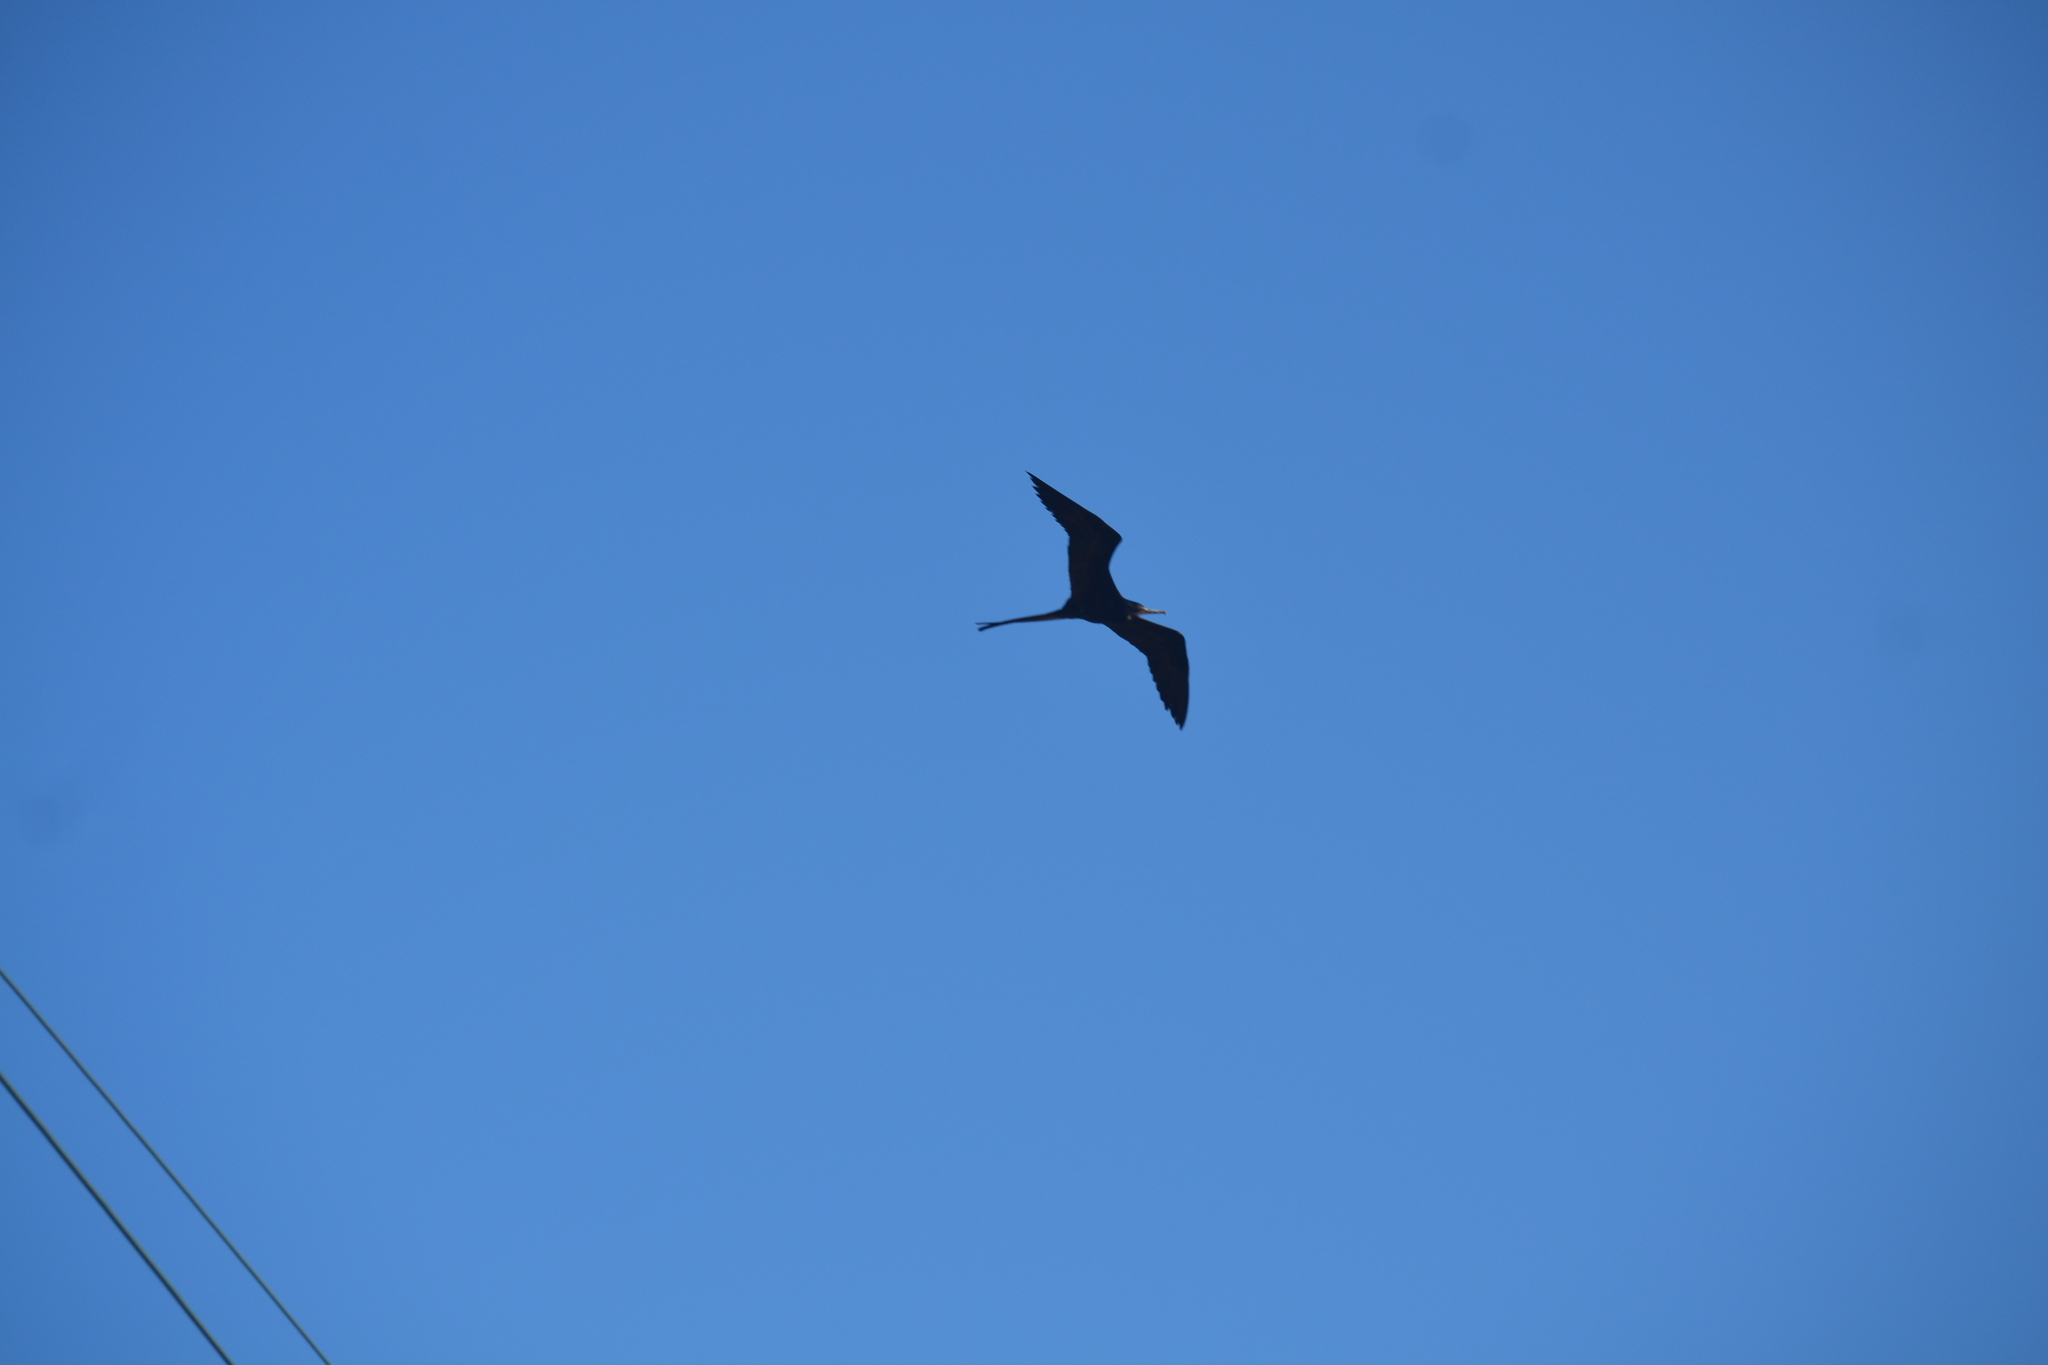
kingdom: Animalia
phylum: Chordata
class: Aves
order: Suliformes
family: Fregatidae
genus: Fregata
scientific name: Fregata magnificens
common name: Magnificent frigatebird
